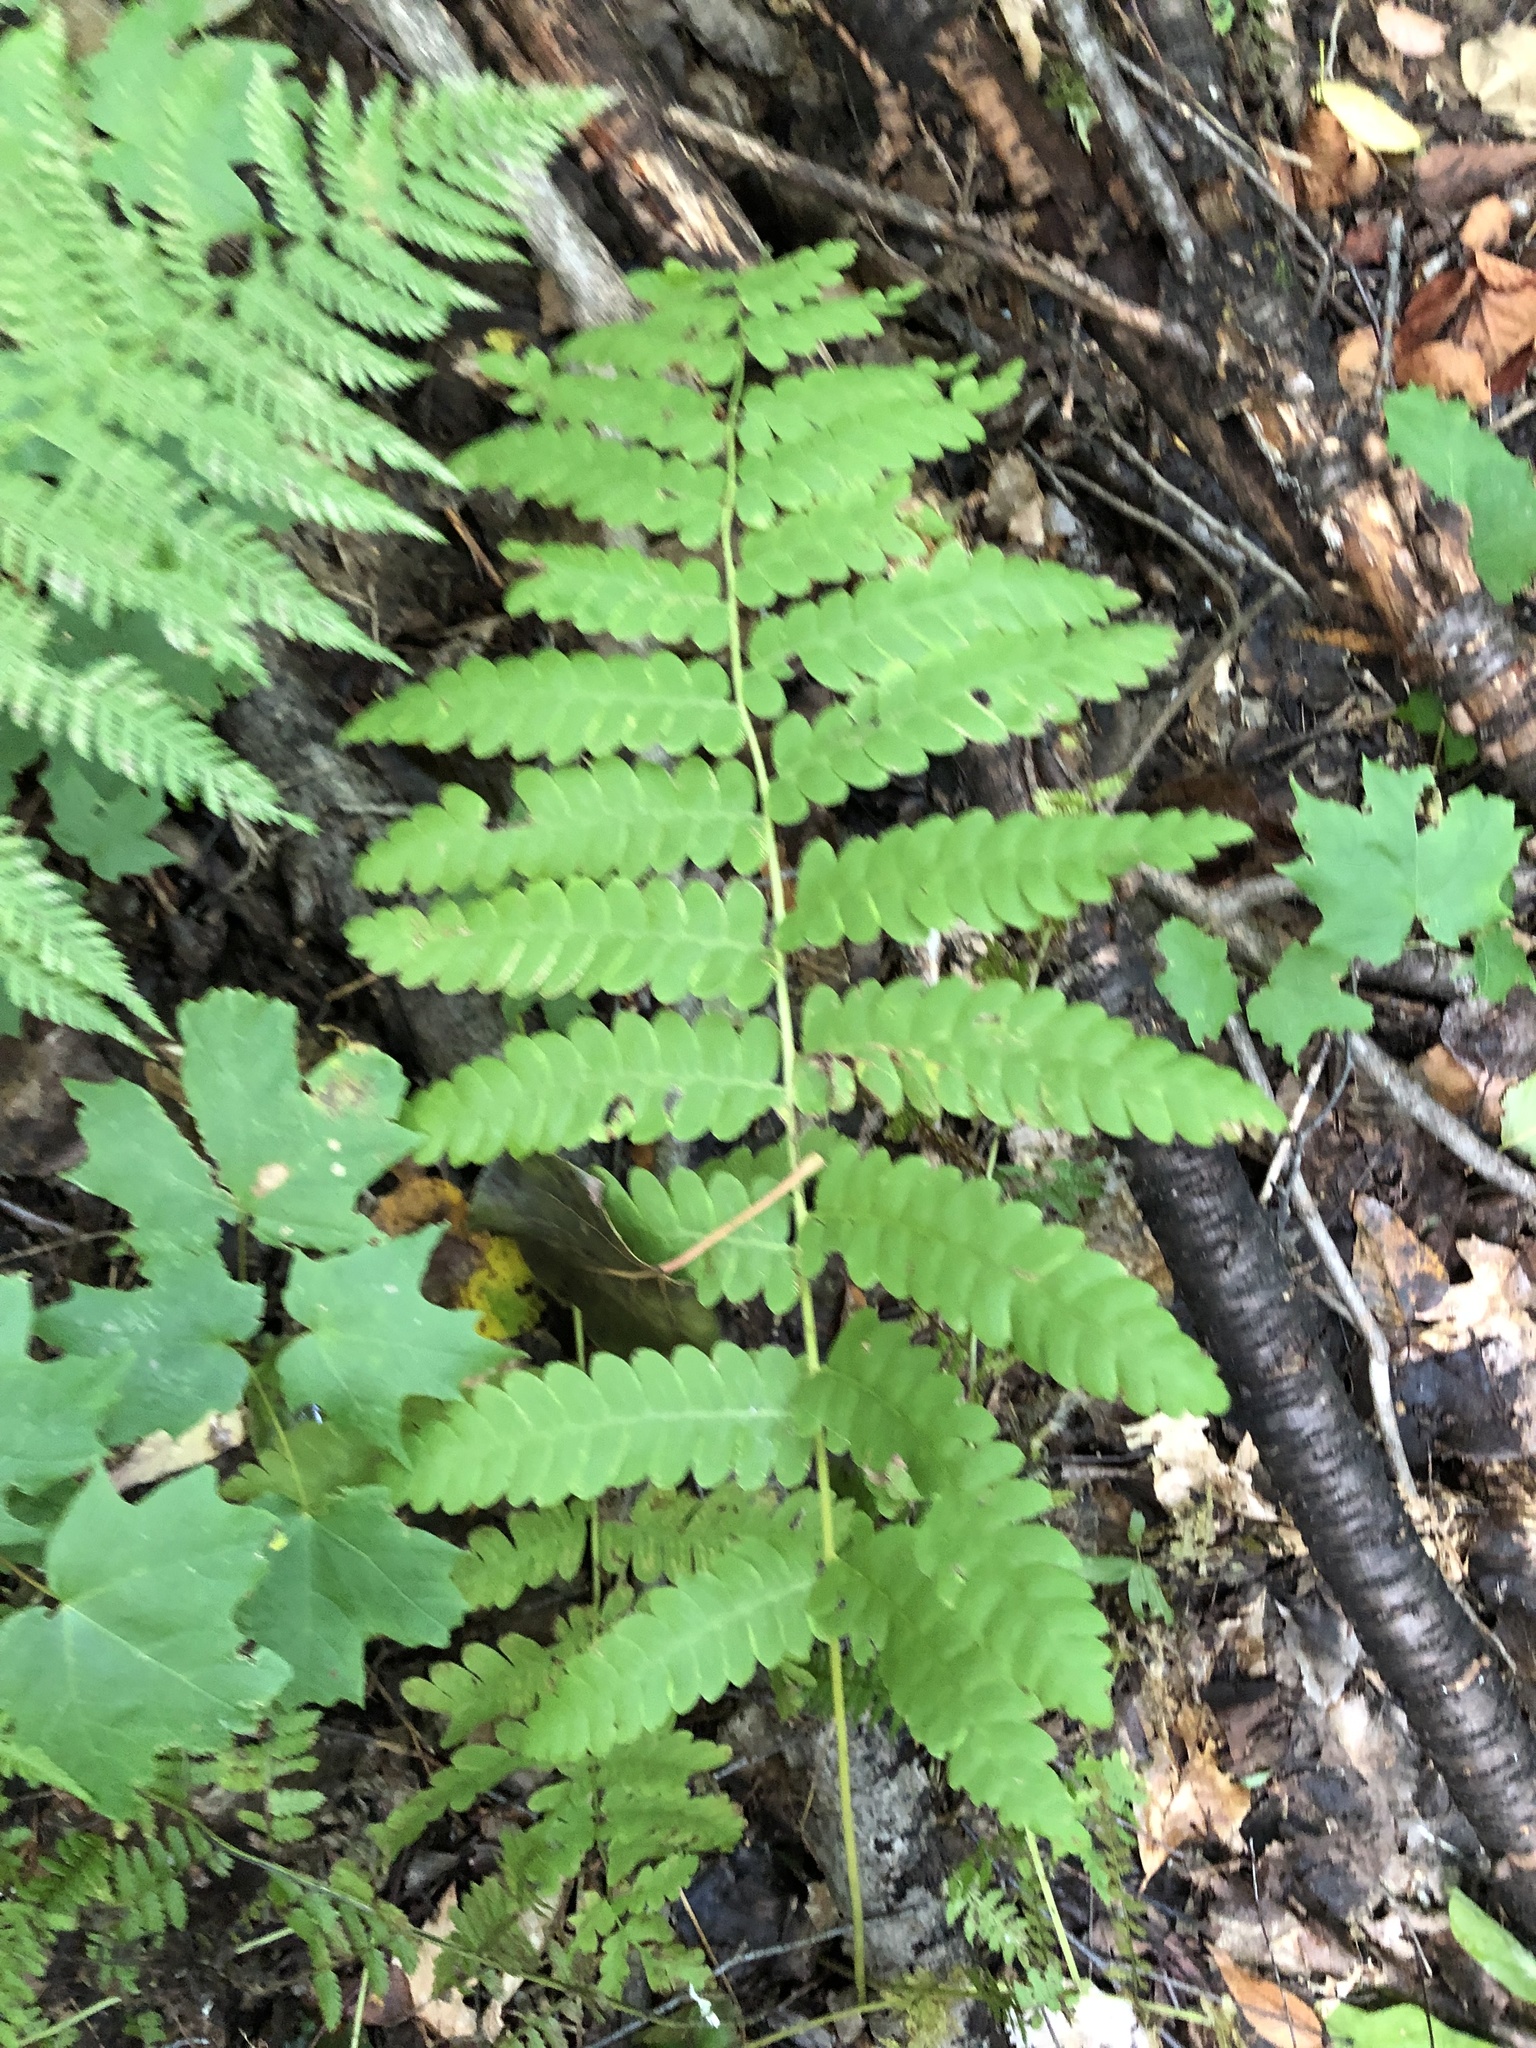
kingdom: Plantae
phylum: Tracheophyta
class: Polypodiopsida
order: Osmundales
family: Osmundaceae
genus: Claytosmunda
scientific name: Claytosmunda claytoniana
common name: Clayton's fern
